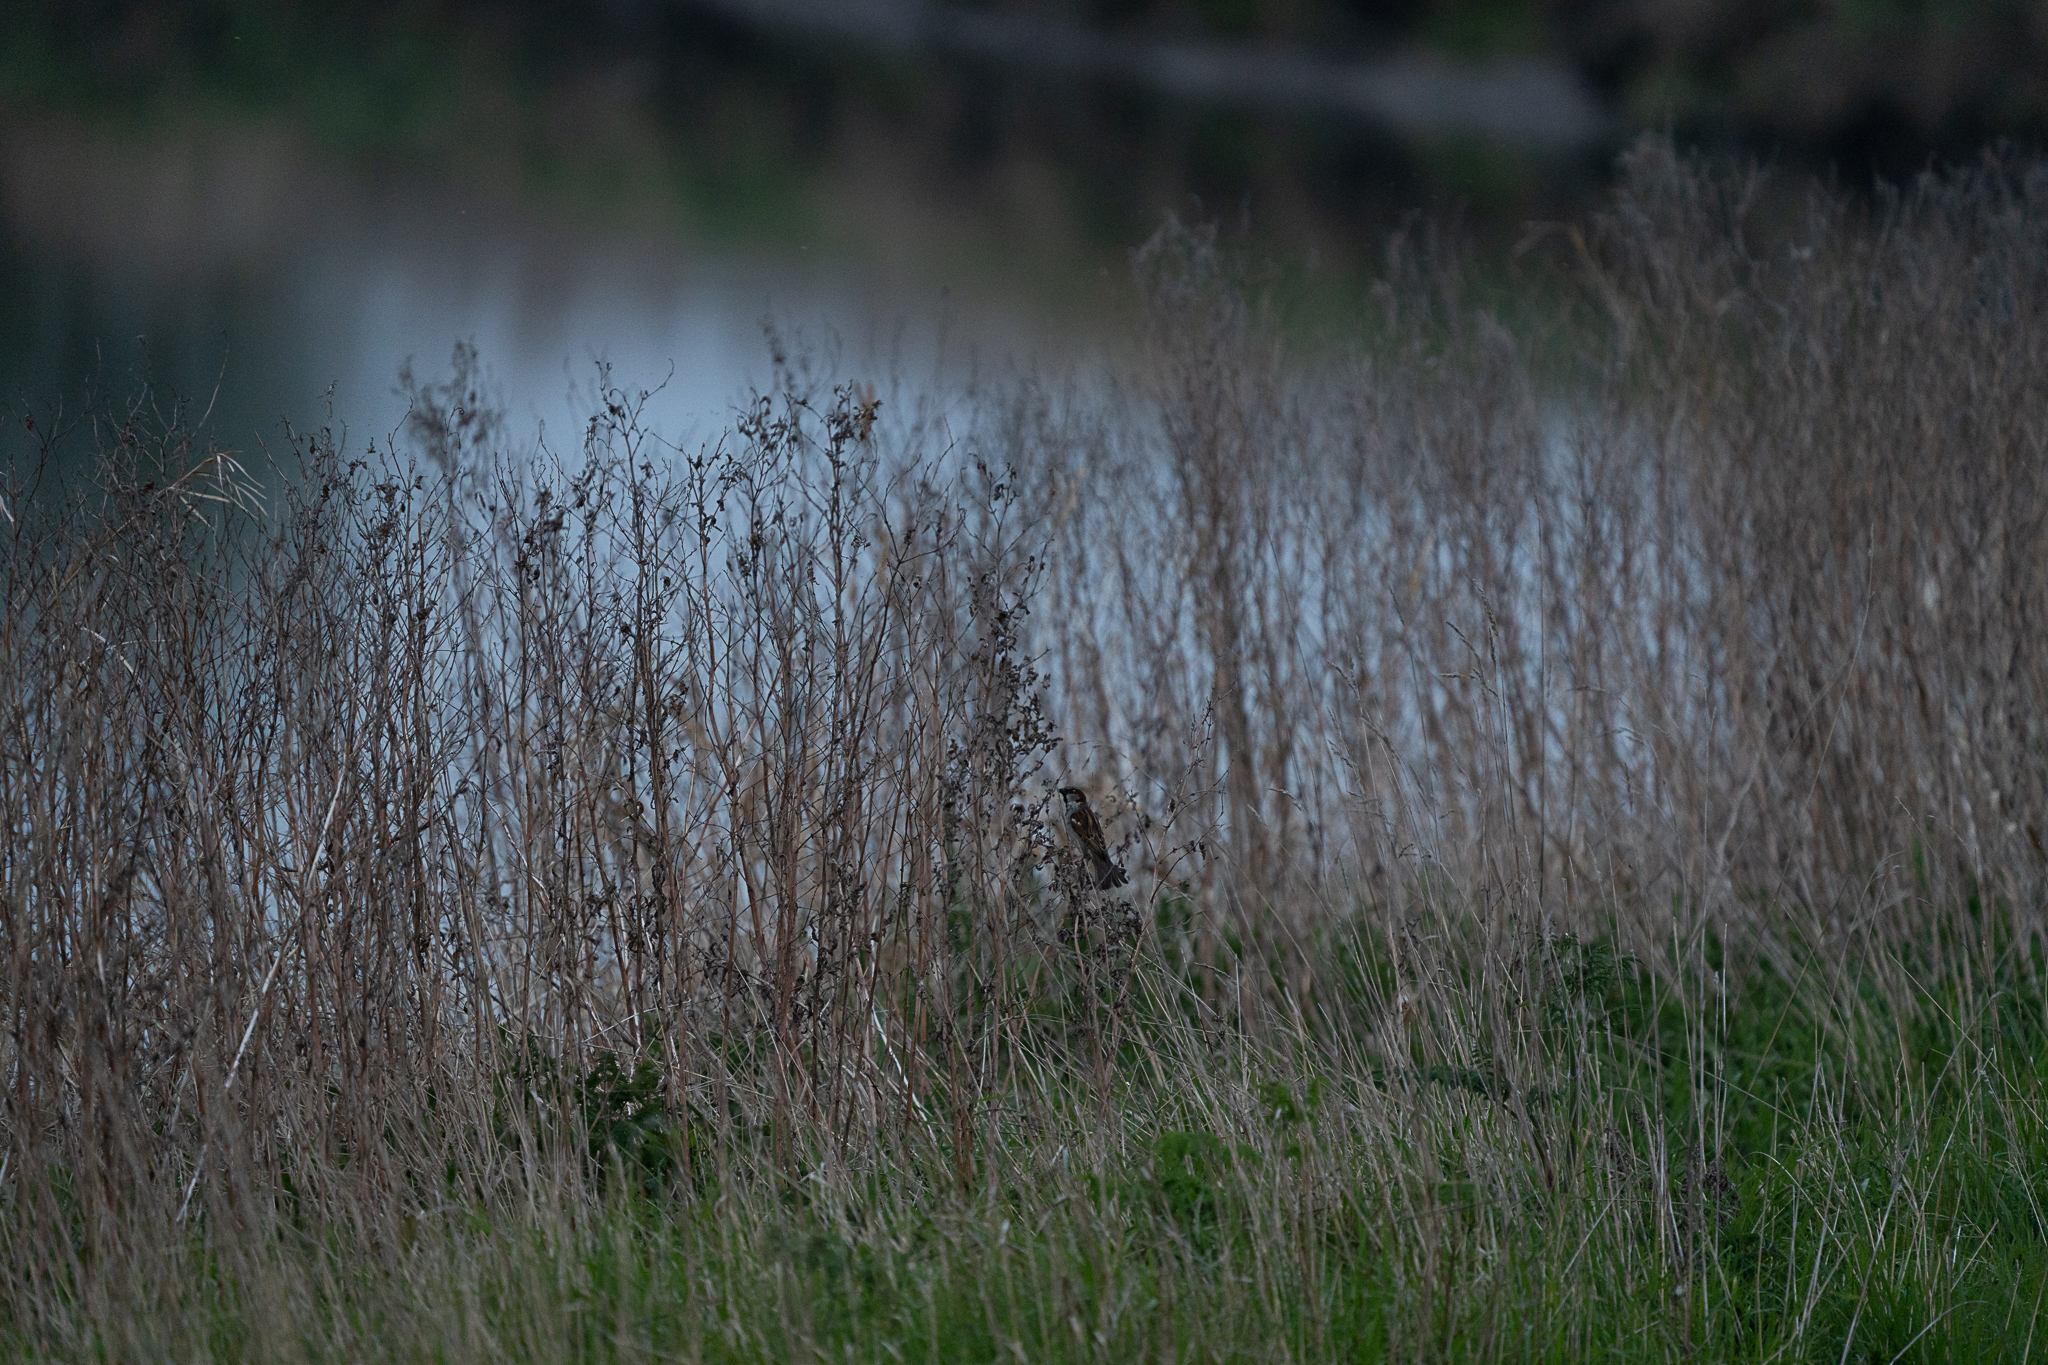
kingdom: Animalia
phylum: Chordata
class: Aves
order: Passeriformes
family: Passeridae
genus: Passer
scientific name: Passer domesticus
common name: House sparrow
